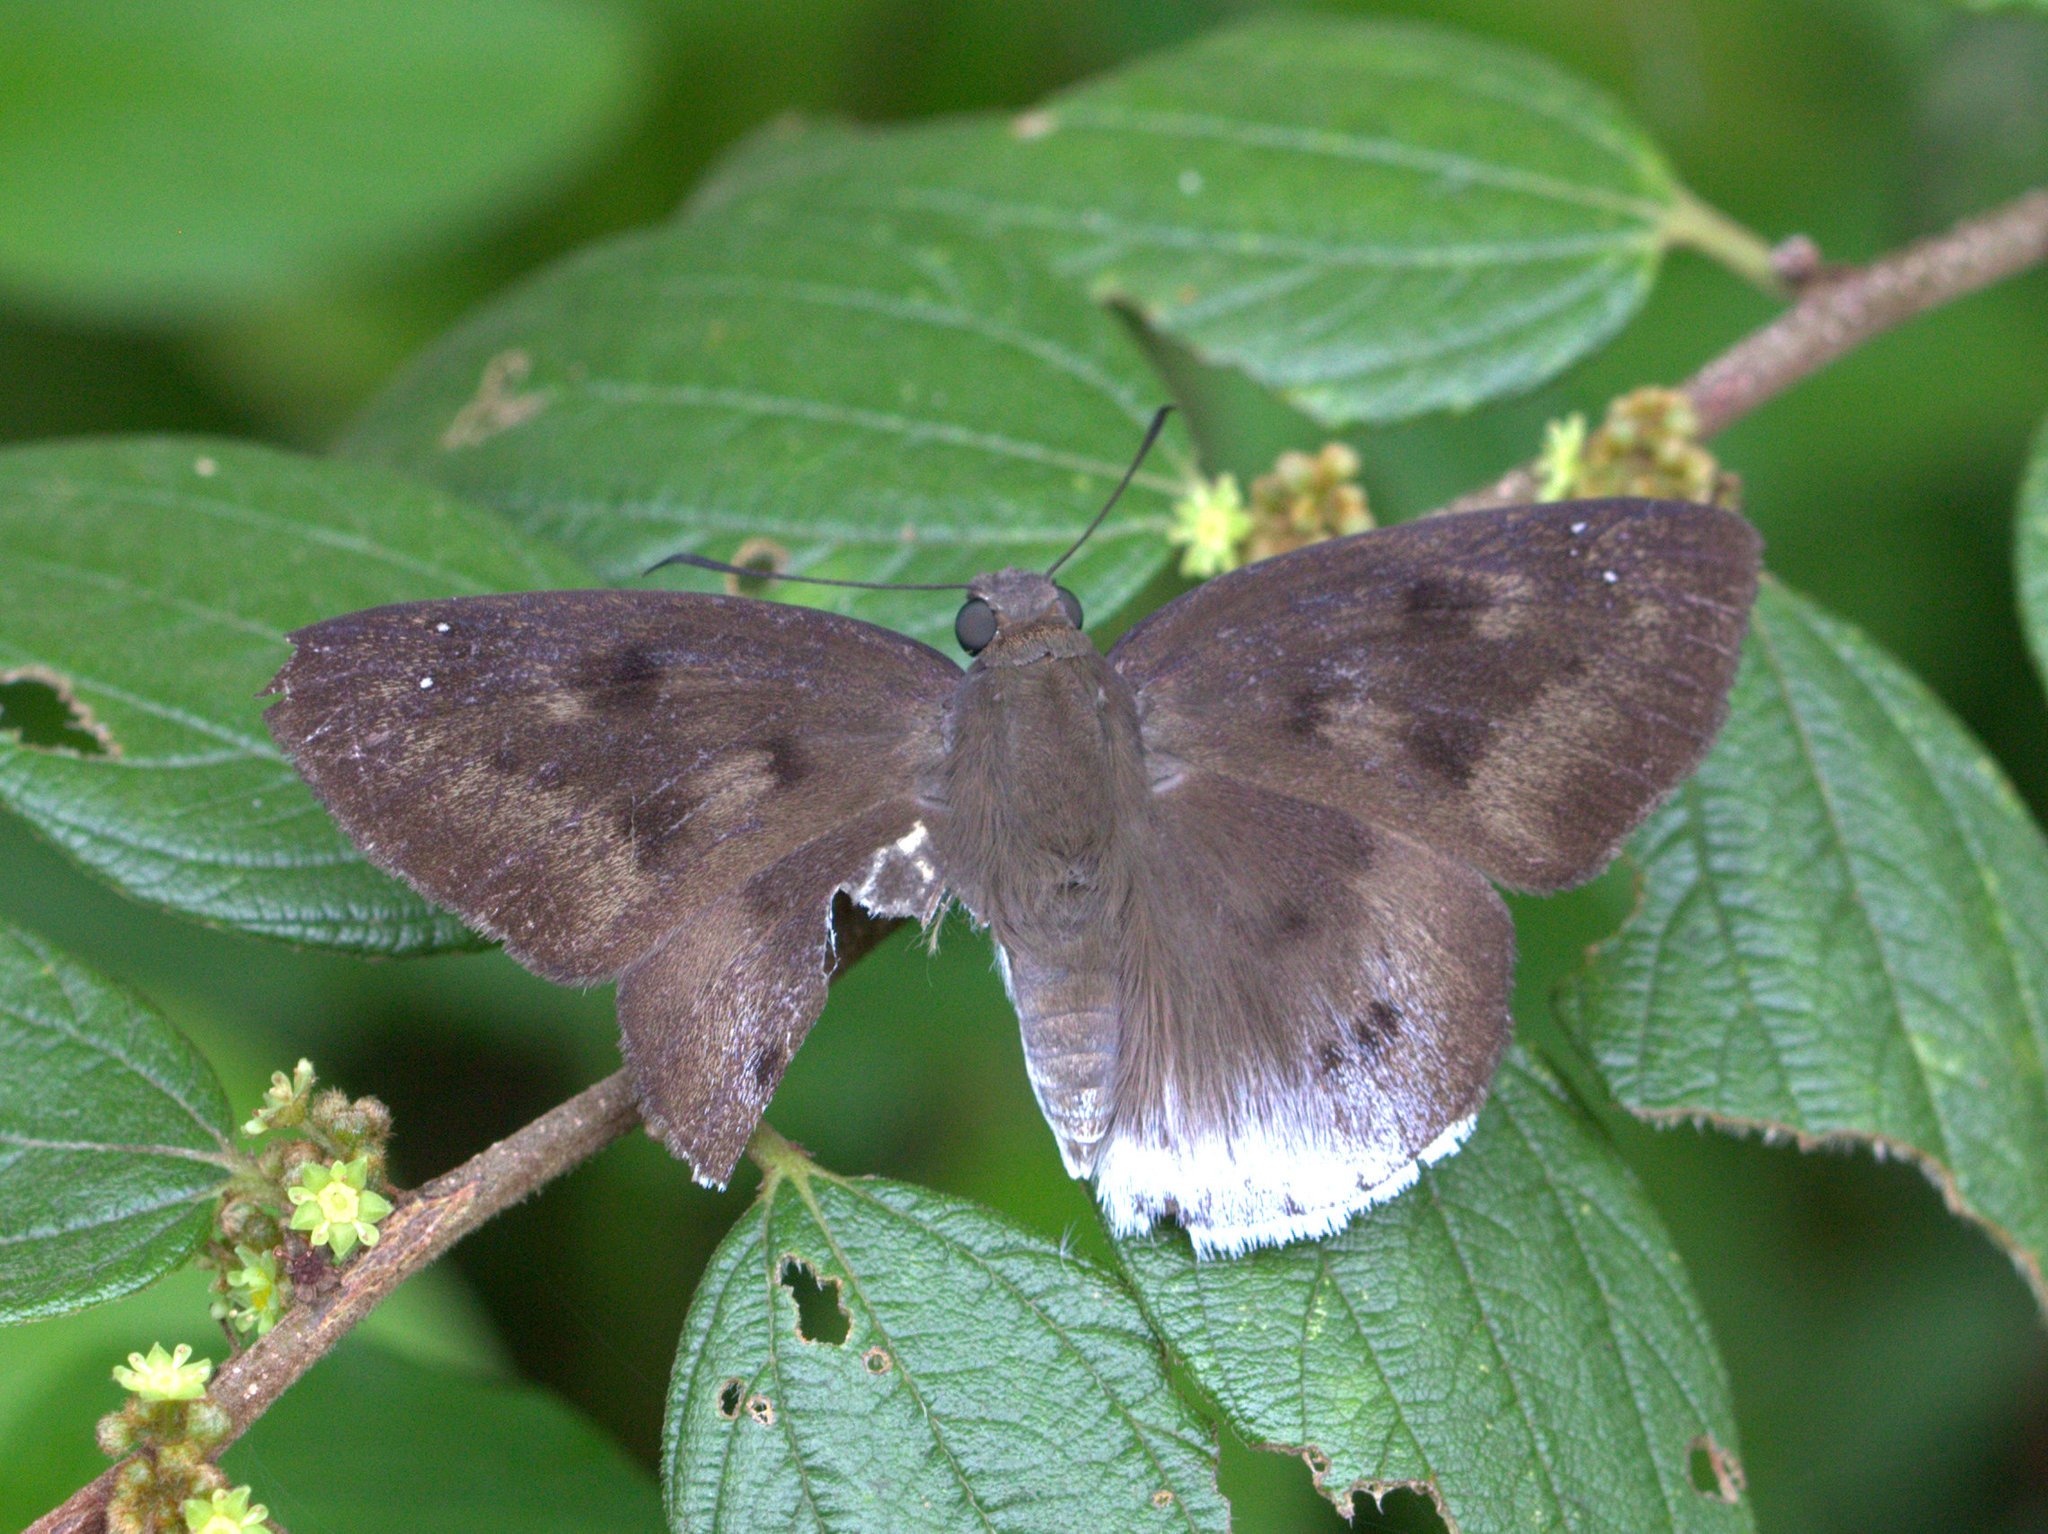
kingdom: Animalia
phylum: Arthropoda
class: Insecta
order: Lepidoptera
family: Hesperiidae
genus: Tagiades
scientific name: Tagiades gana
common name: Suffused snow flat
